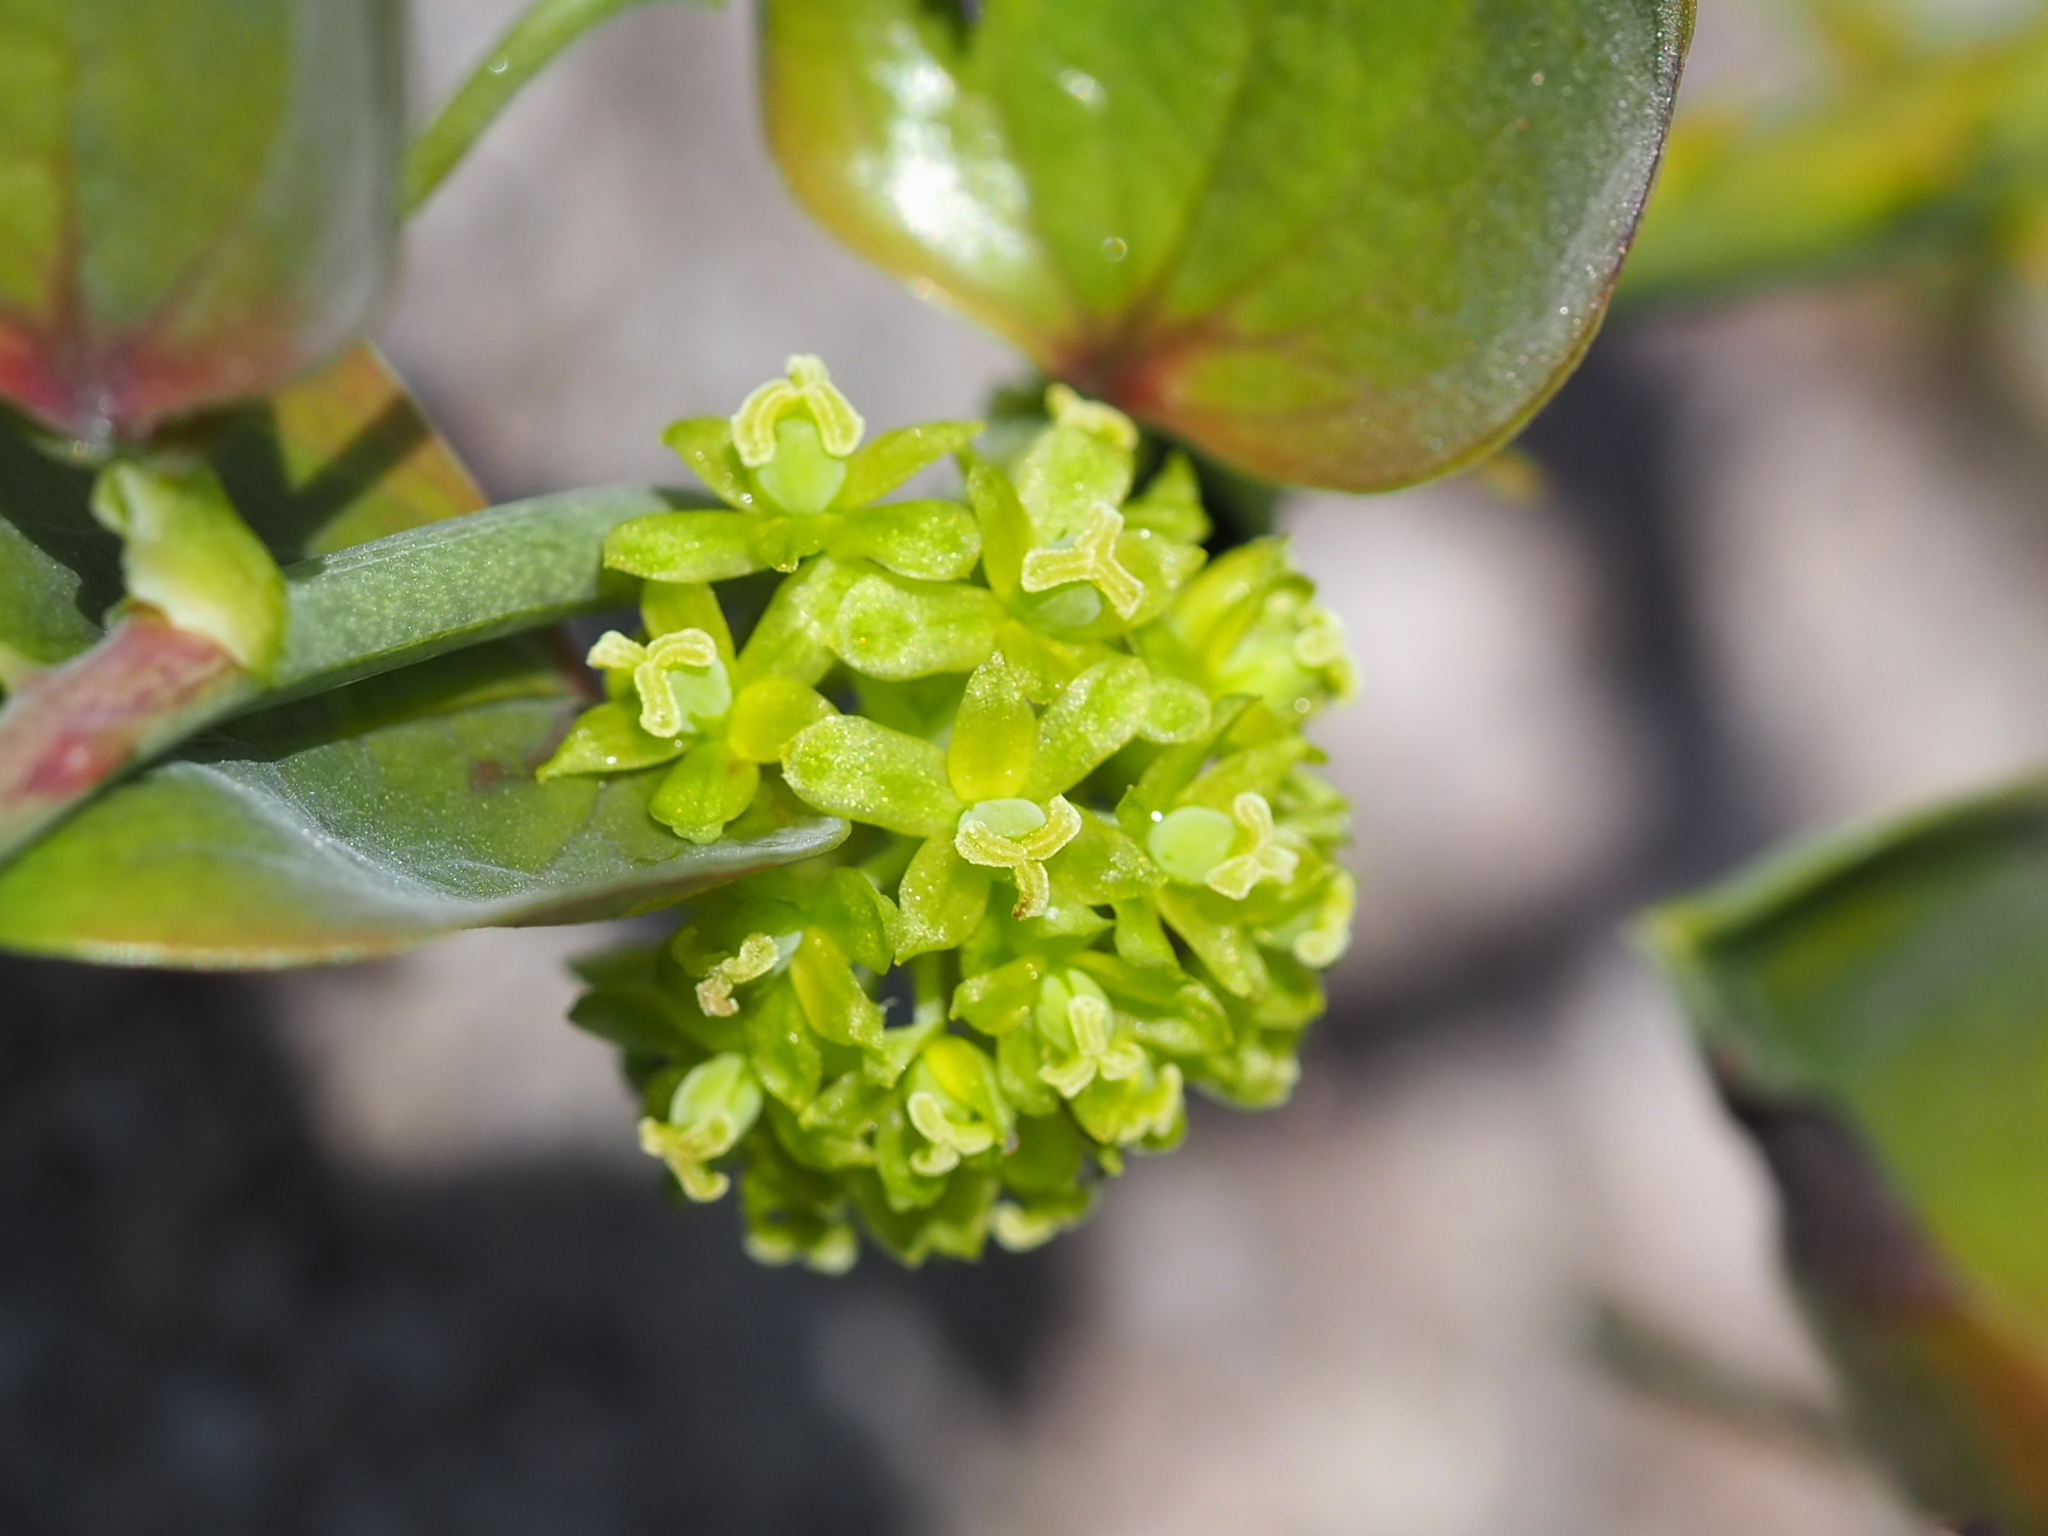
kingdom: Plantae
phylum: Tracheophyta
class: Liliopsida
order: Liliales
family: Smilacaceae
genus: Smilax
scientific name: Smilax china
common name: Chinaroot
